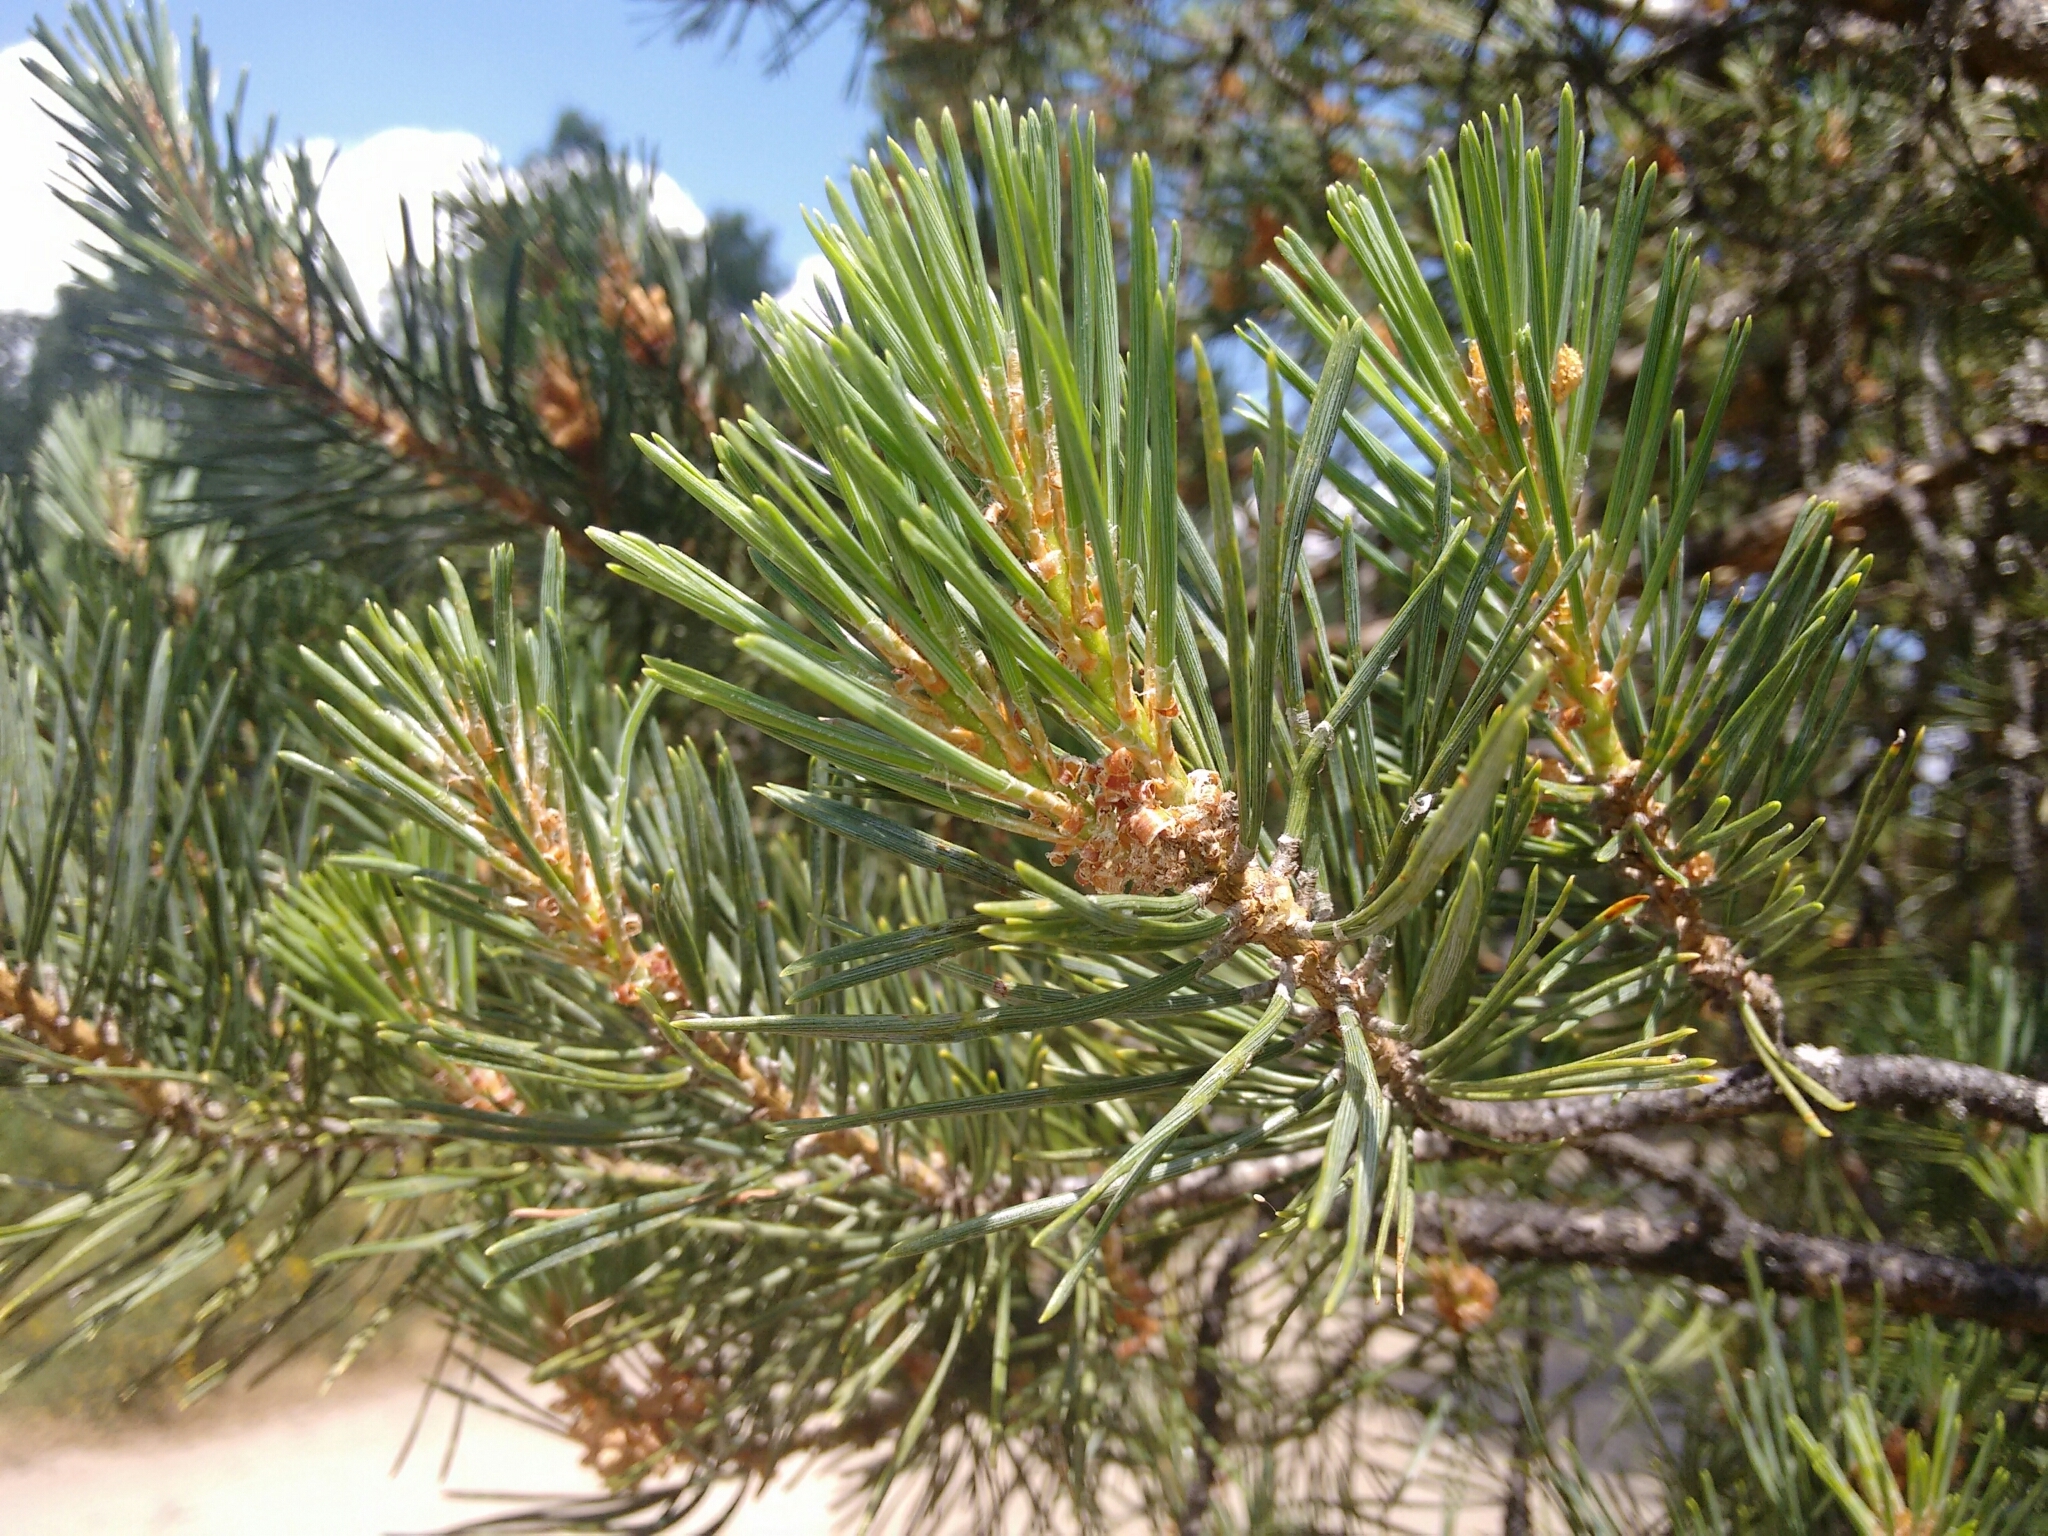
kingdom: Plantae
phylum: Tracheophyta
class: Pinopsida
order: Pinales
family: Pinaceae
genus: Pinus
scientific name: Pinus sylvestris
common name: Scots pine
